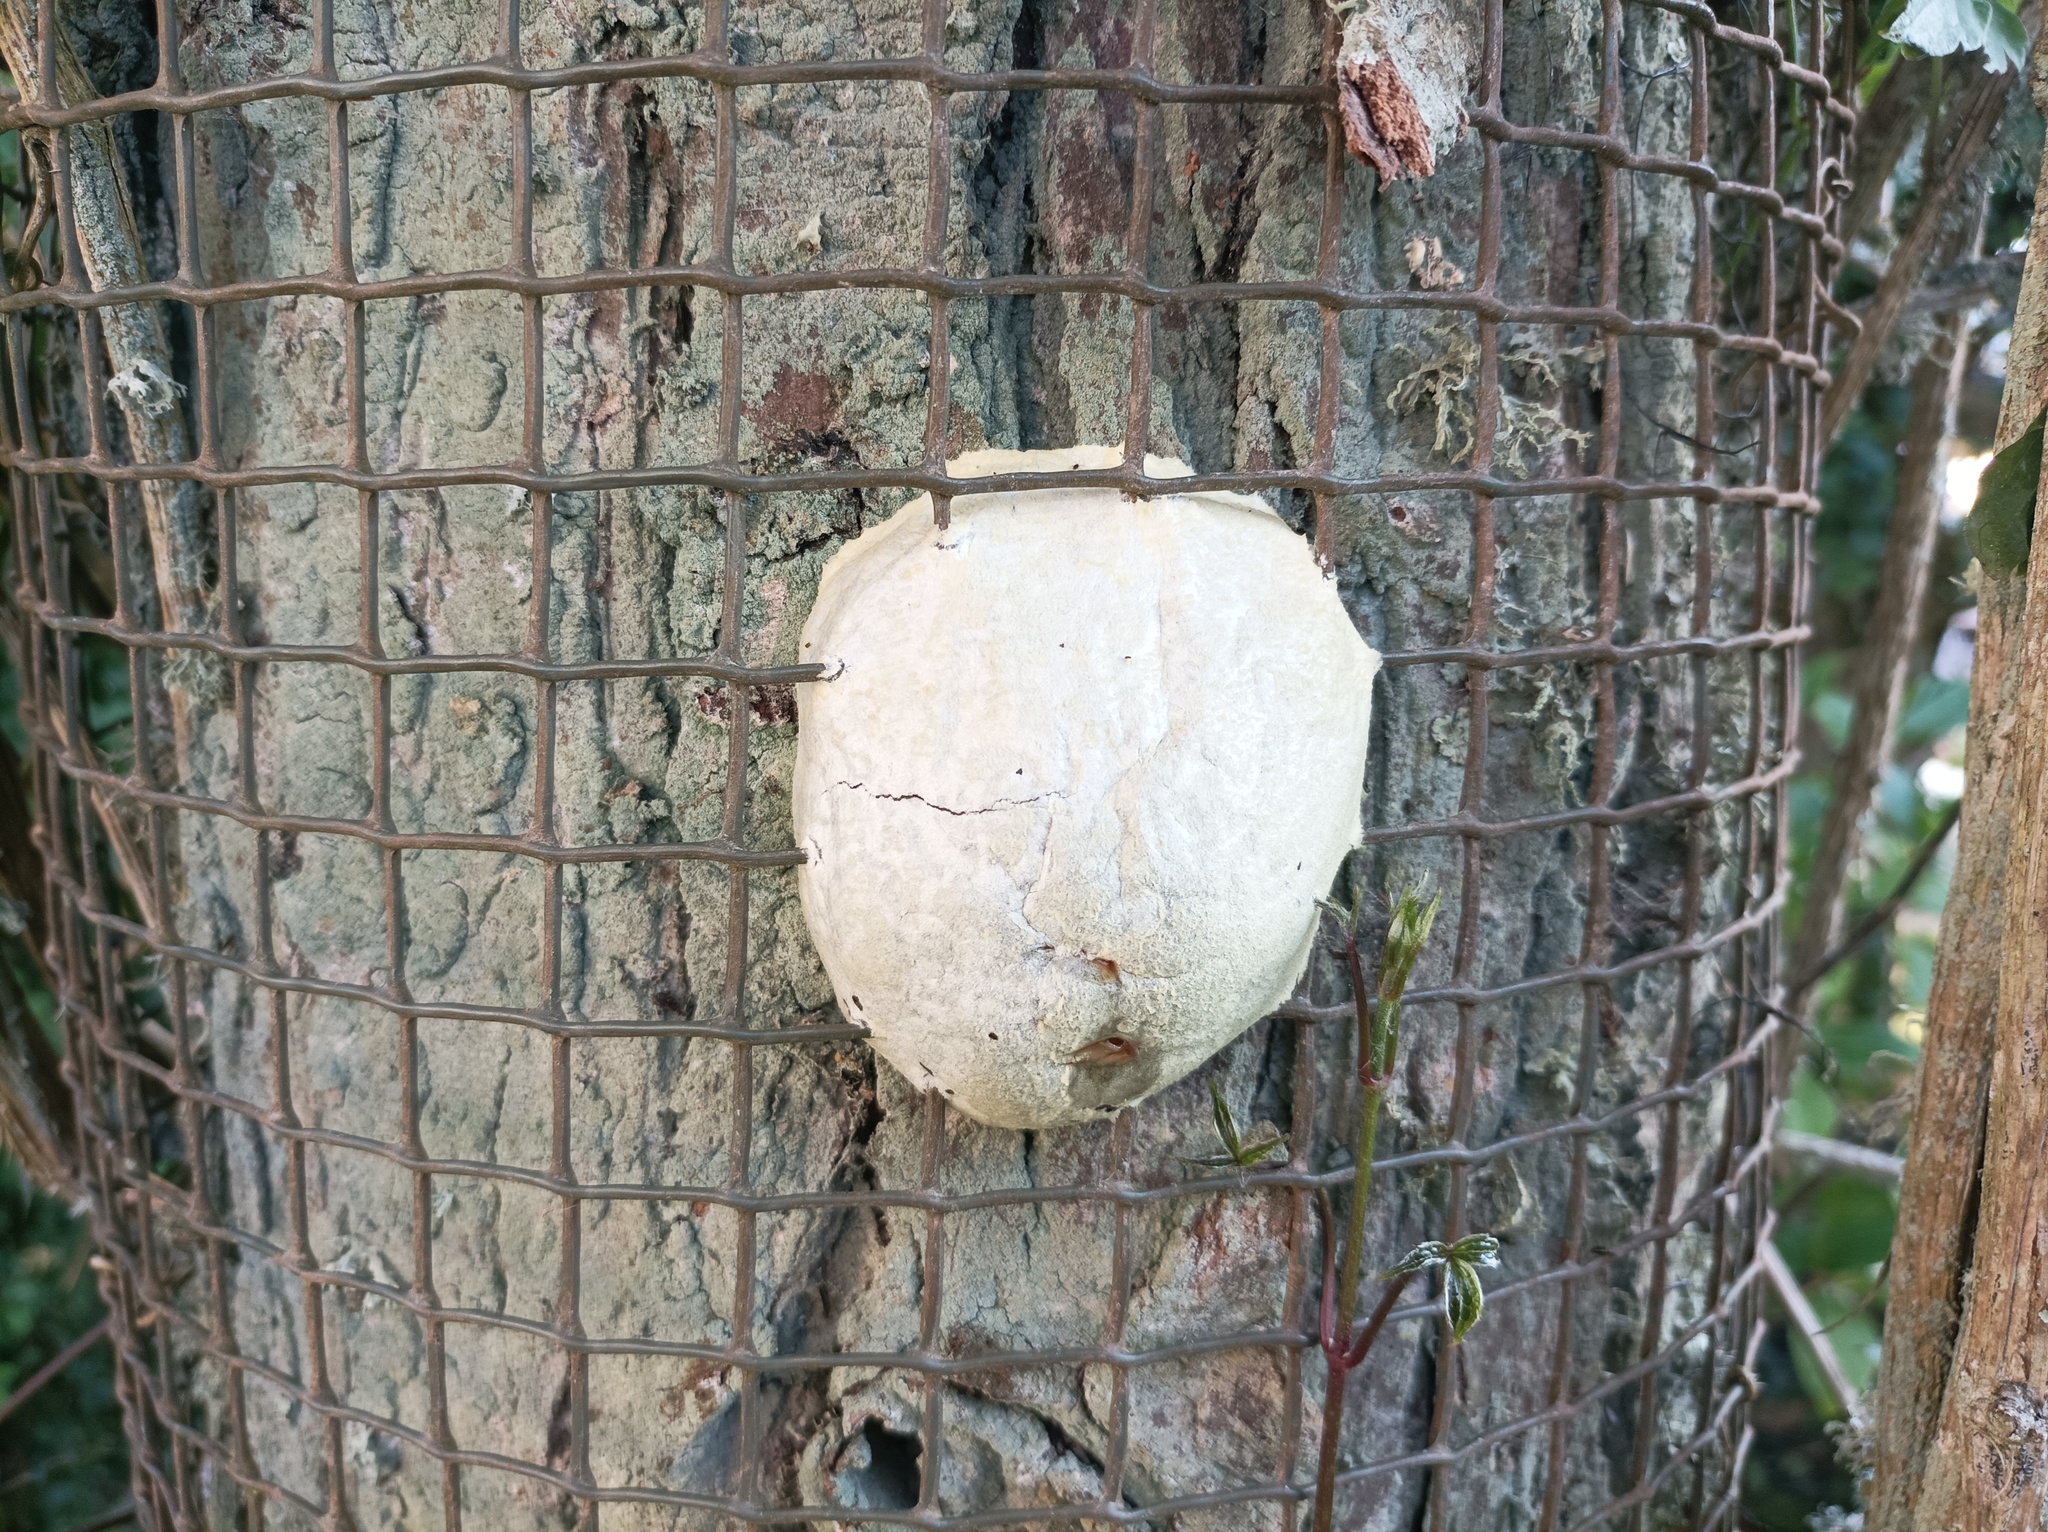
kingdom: Protozoa
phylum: Mycetozoa
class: Myxomycetes
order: Cribrariales
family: Tubiferaceae
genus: Reticularia
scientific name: Reticularia lycoperdon
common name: False puffball
